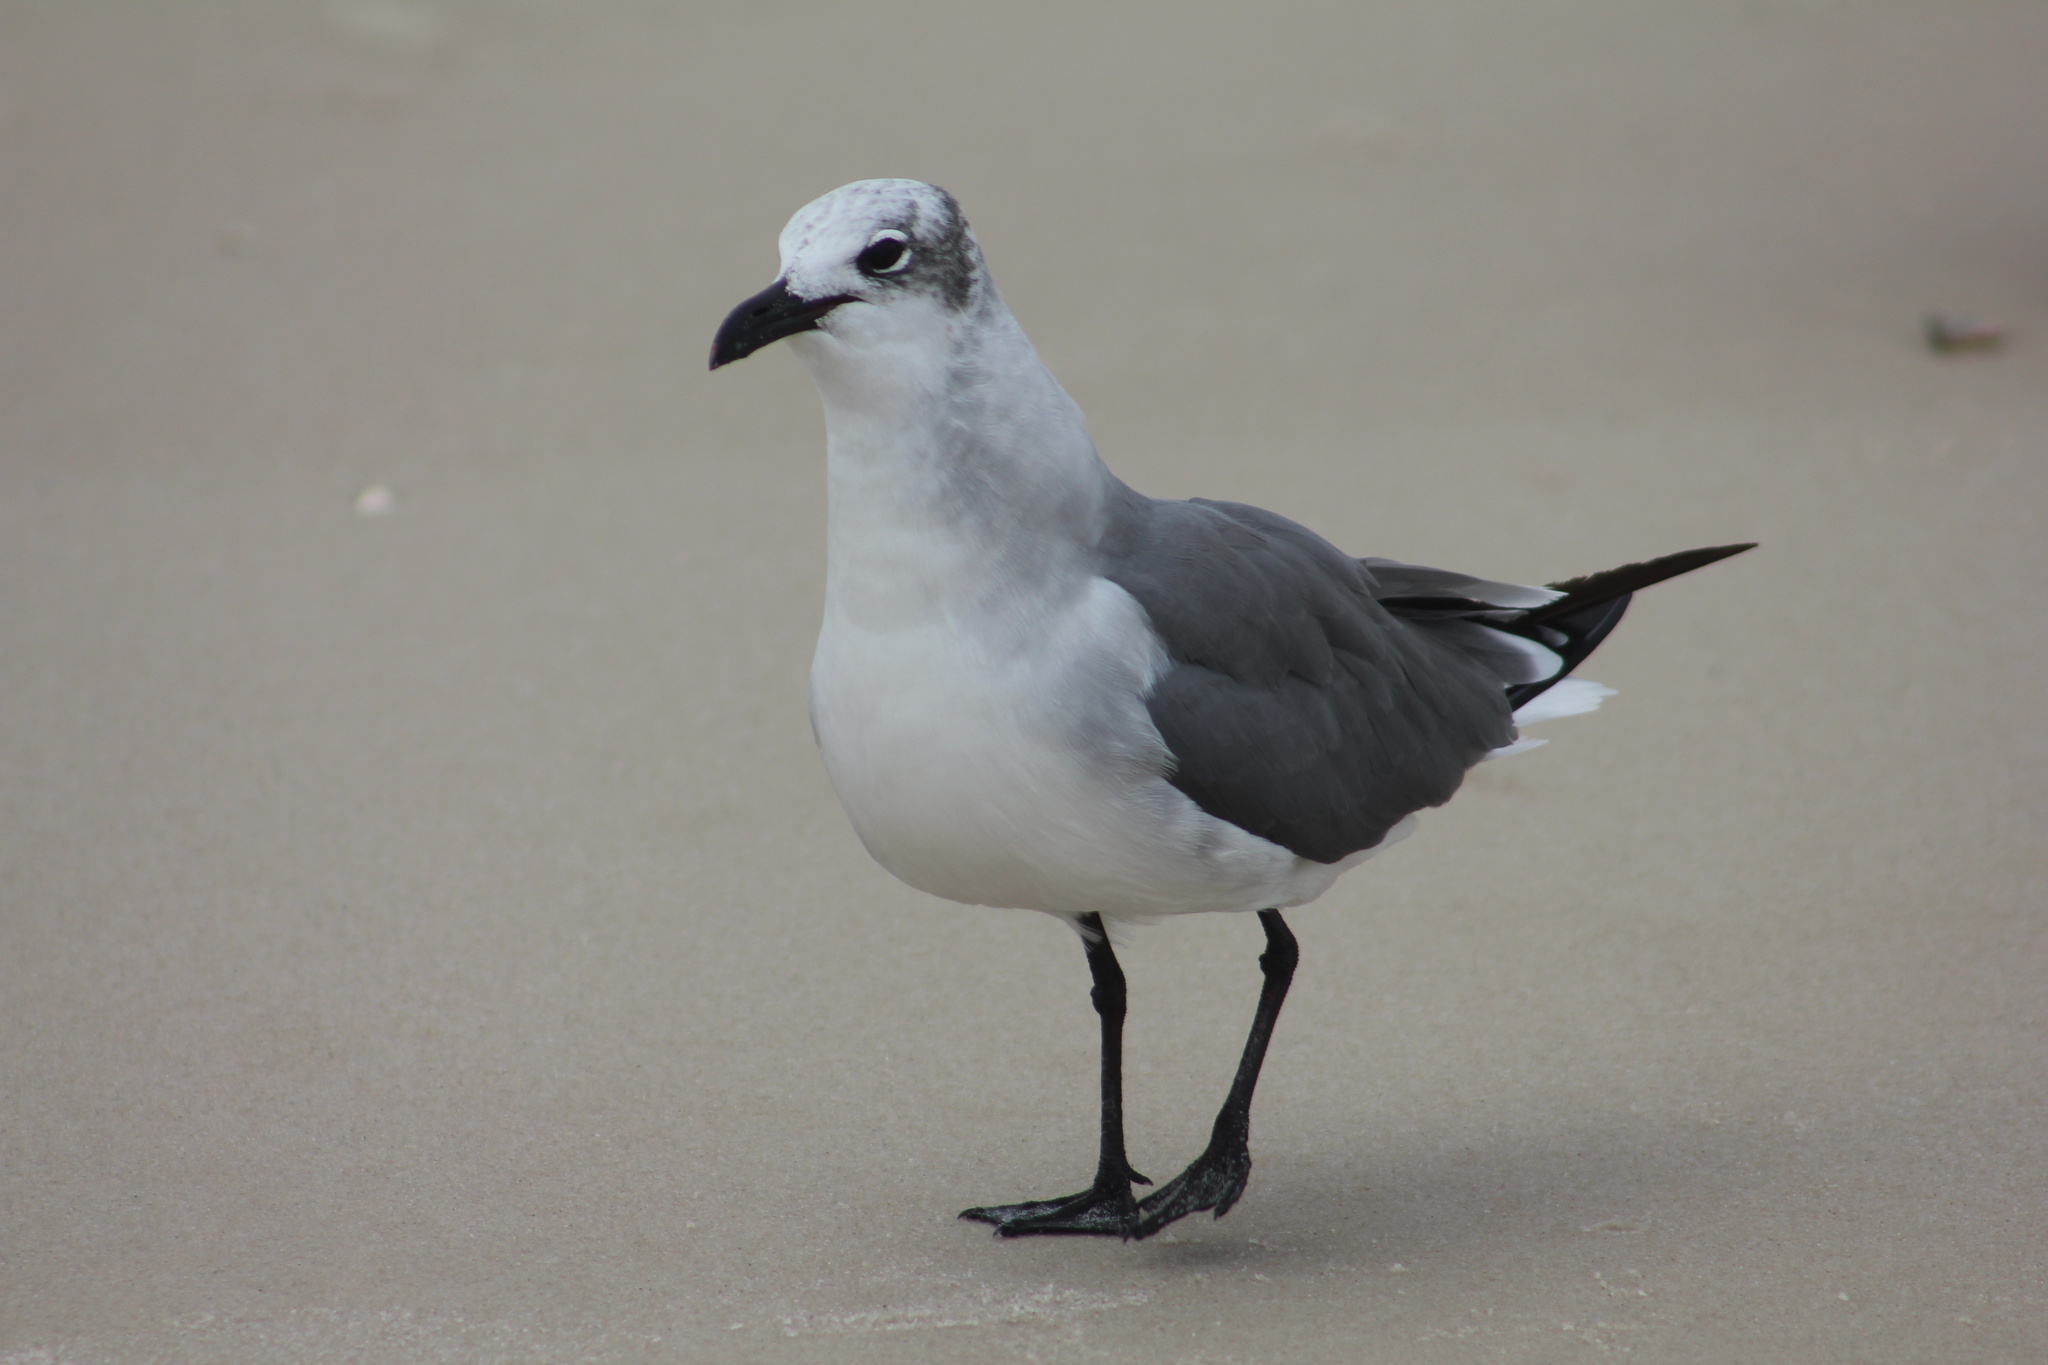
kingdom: Animalia
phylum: Chordata
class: Aves
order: Charadriiformes
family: Laridae
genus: Leucophaeus
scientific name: Leucophaeus atricilla
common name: Laughing gull
